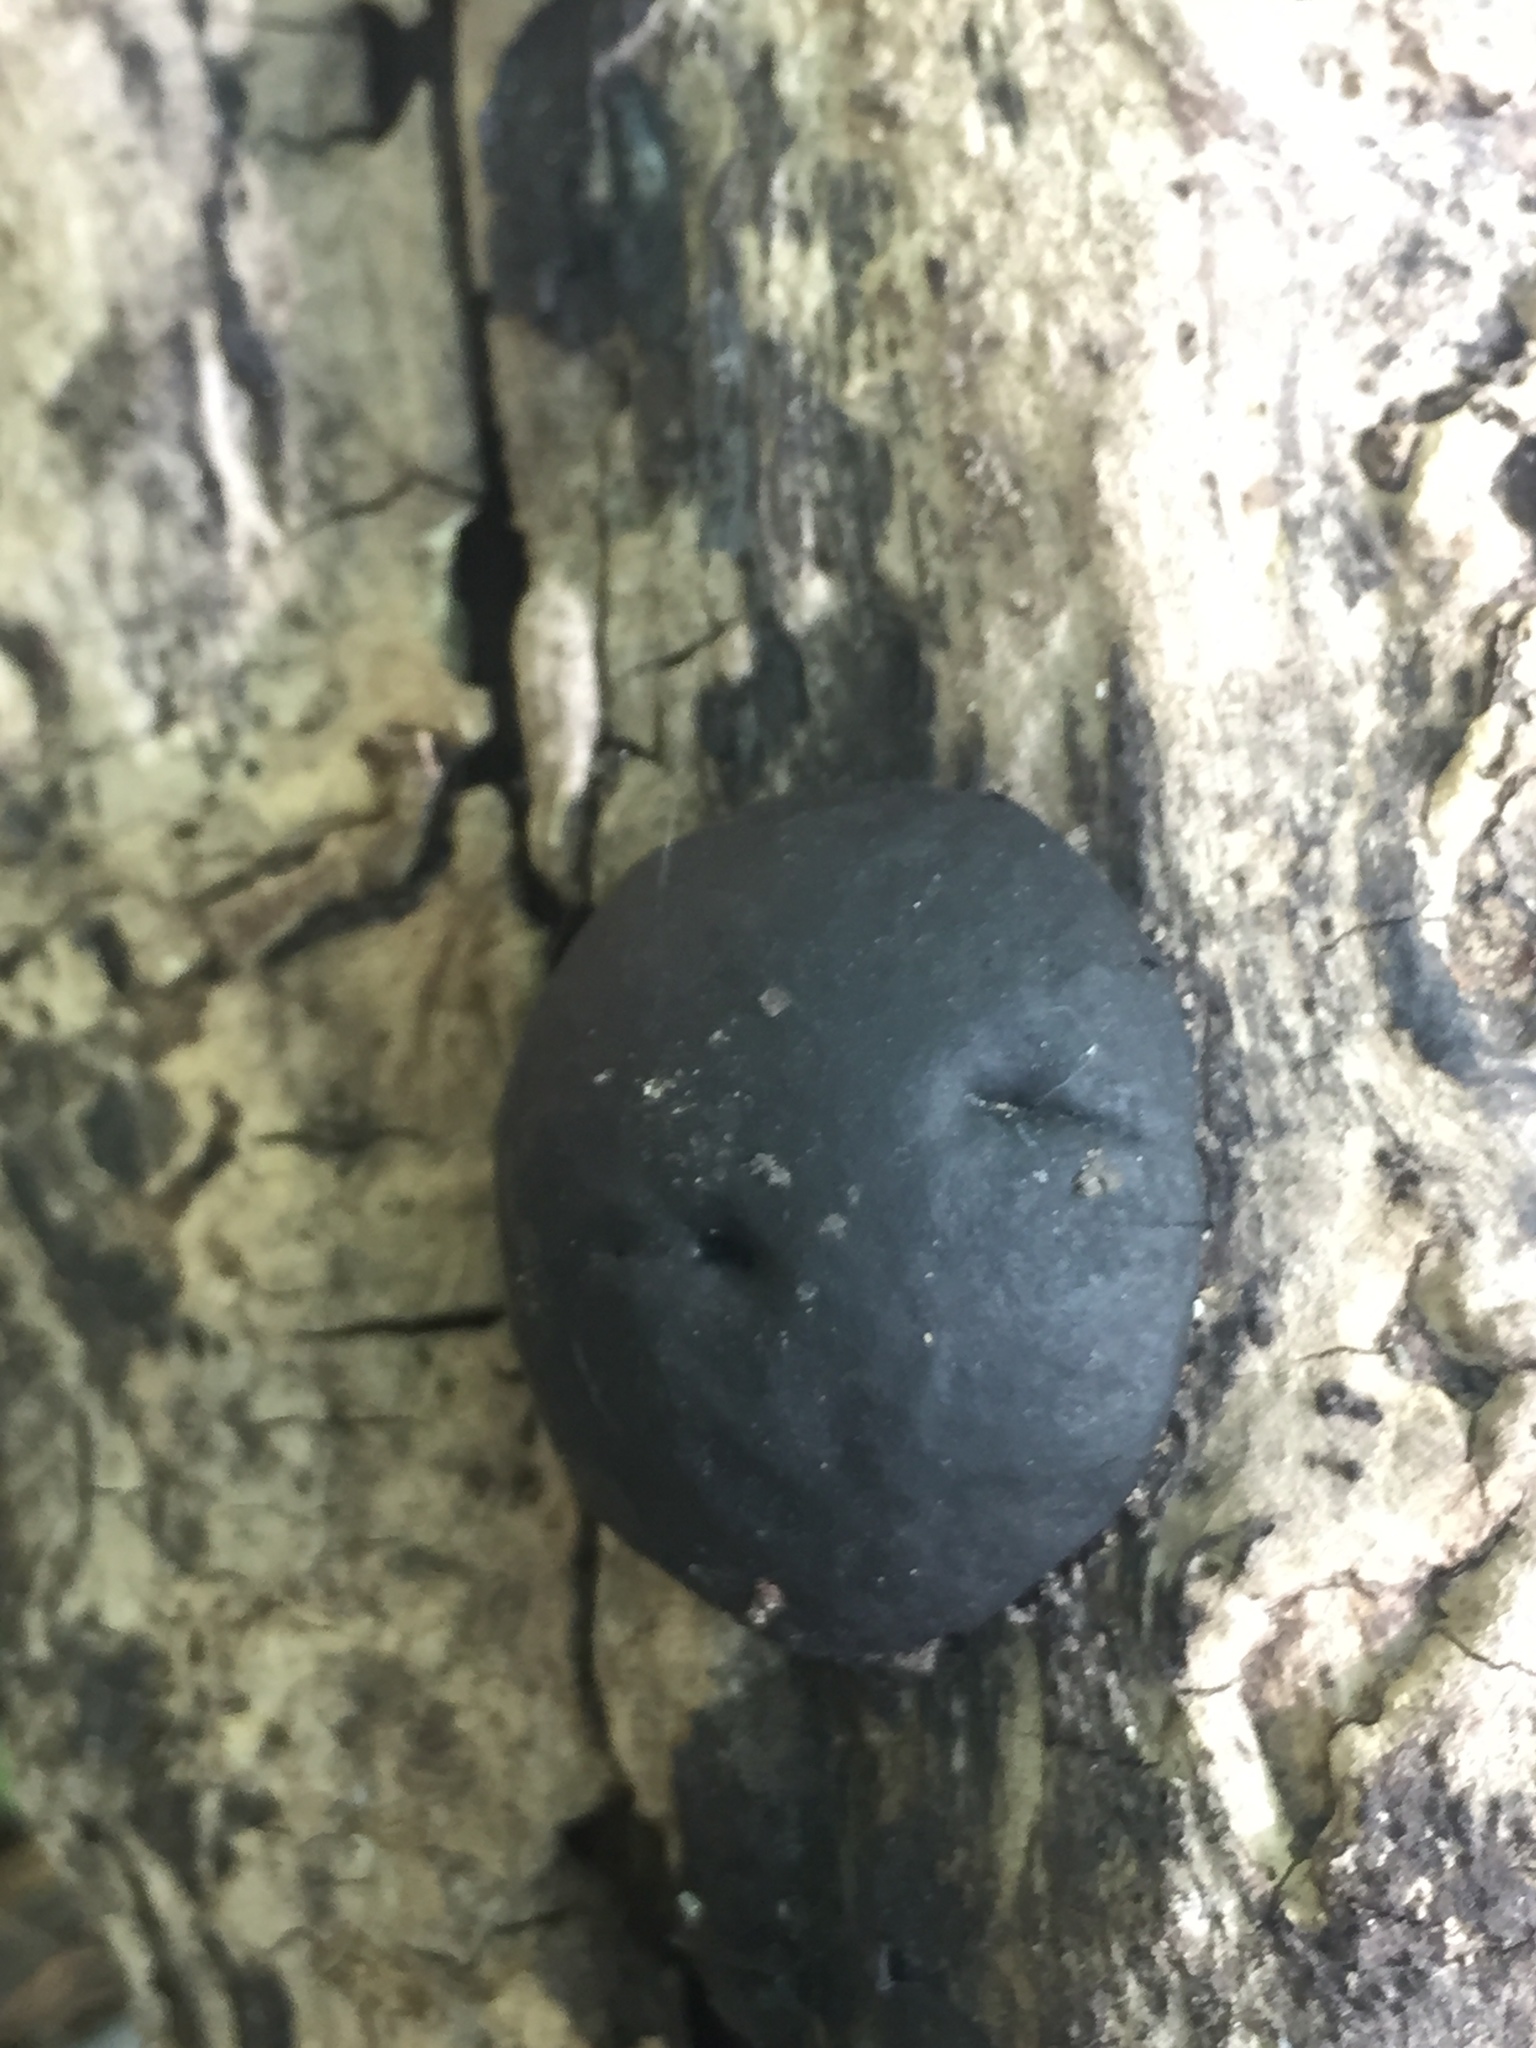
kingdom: Fungi
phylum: Ascomycota
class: Sordariomycetes
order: Xylariales
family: Hypoxylaceae
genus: Daldinia
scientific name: Daldinia
